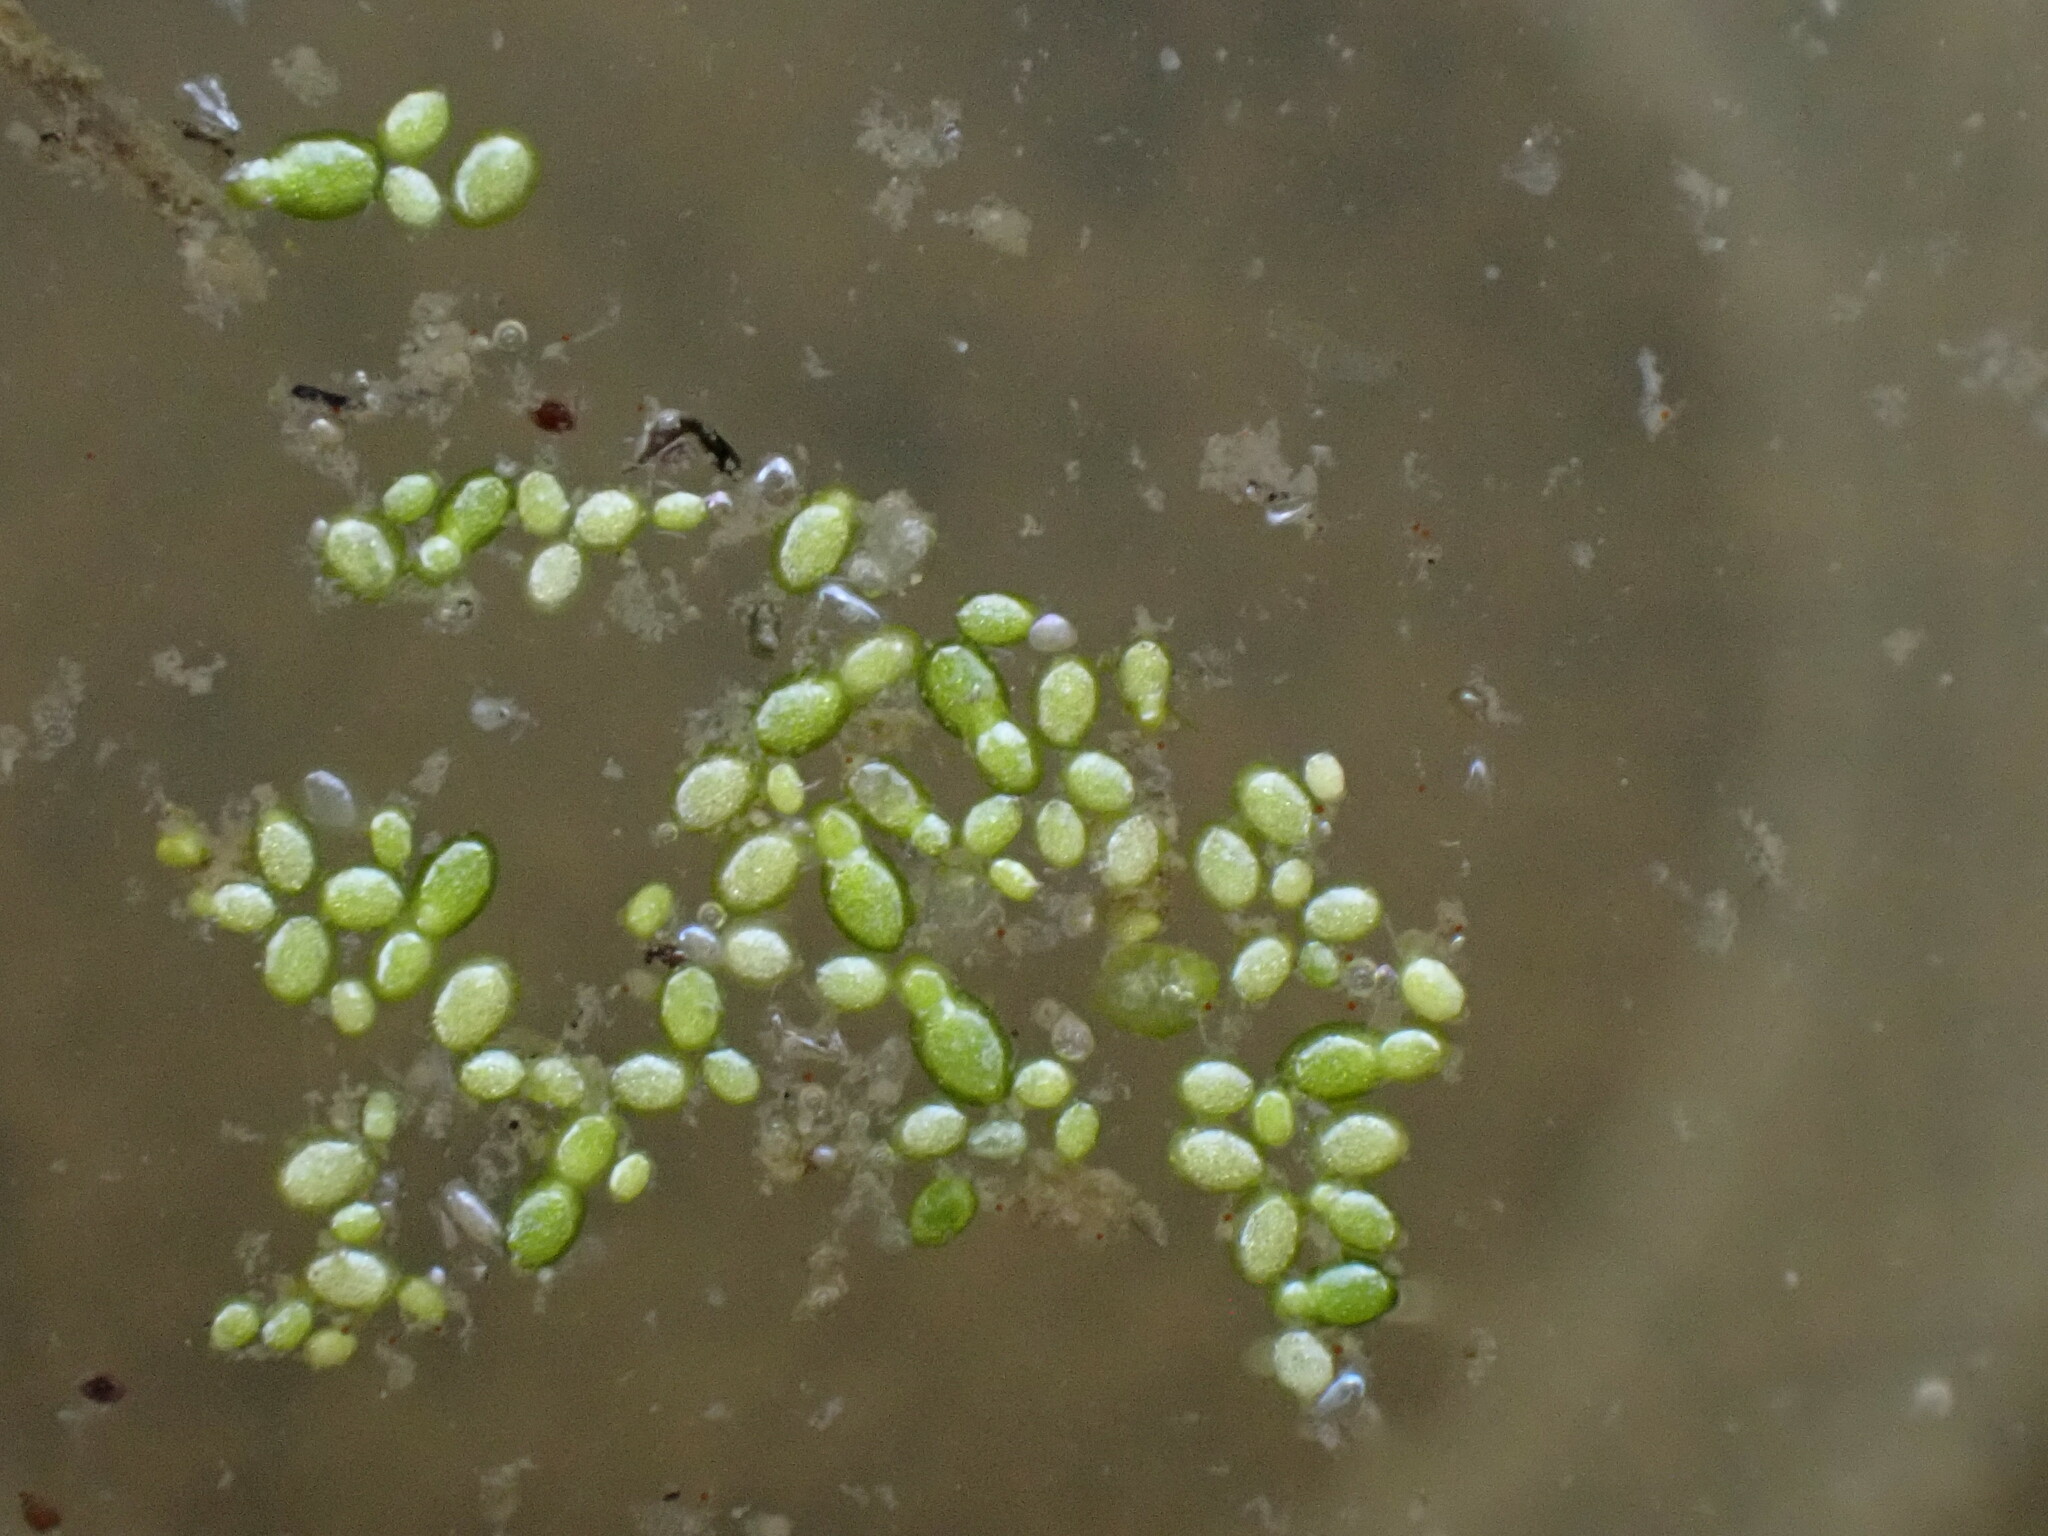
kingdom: Plantae
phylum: Tracheophyta
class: Liliopsida
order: Alismatales
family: Araceae
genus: Lemna
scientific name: Lemna minor
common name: Common duckweed
